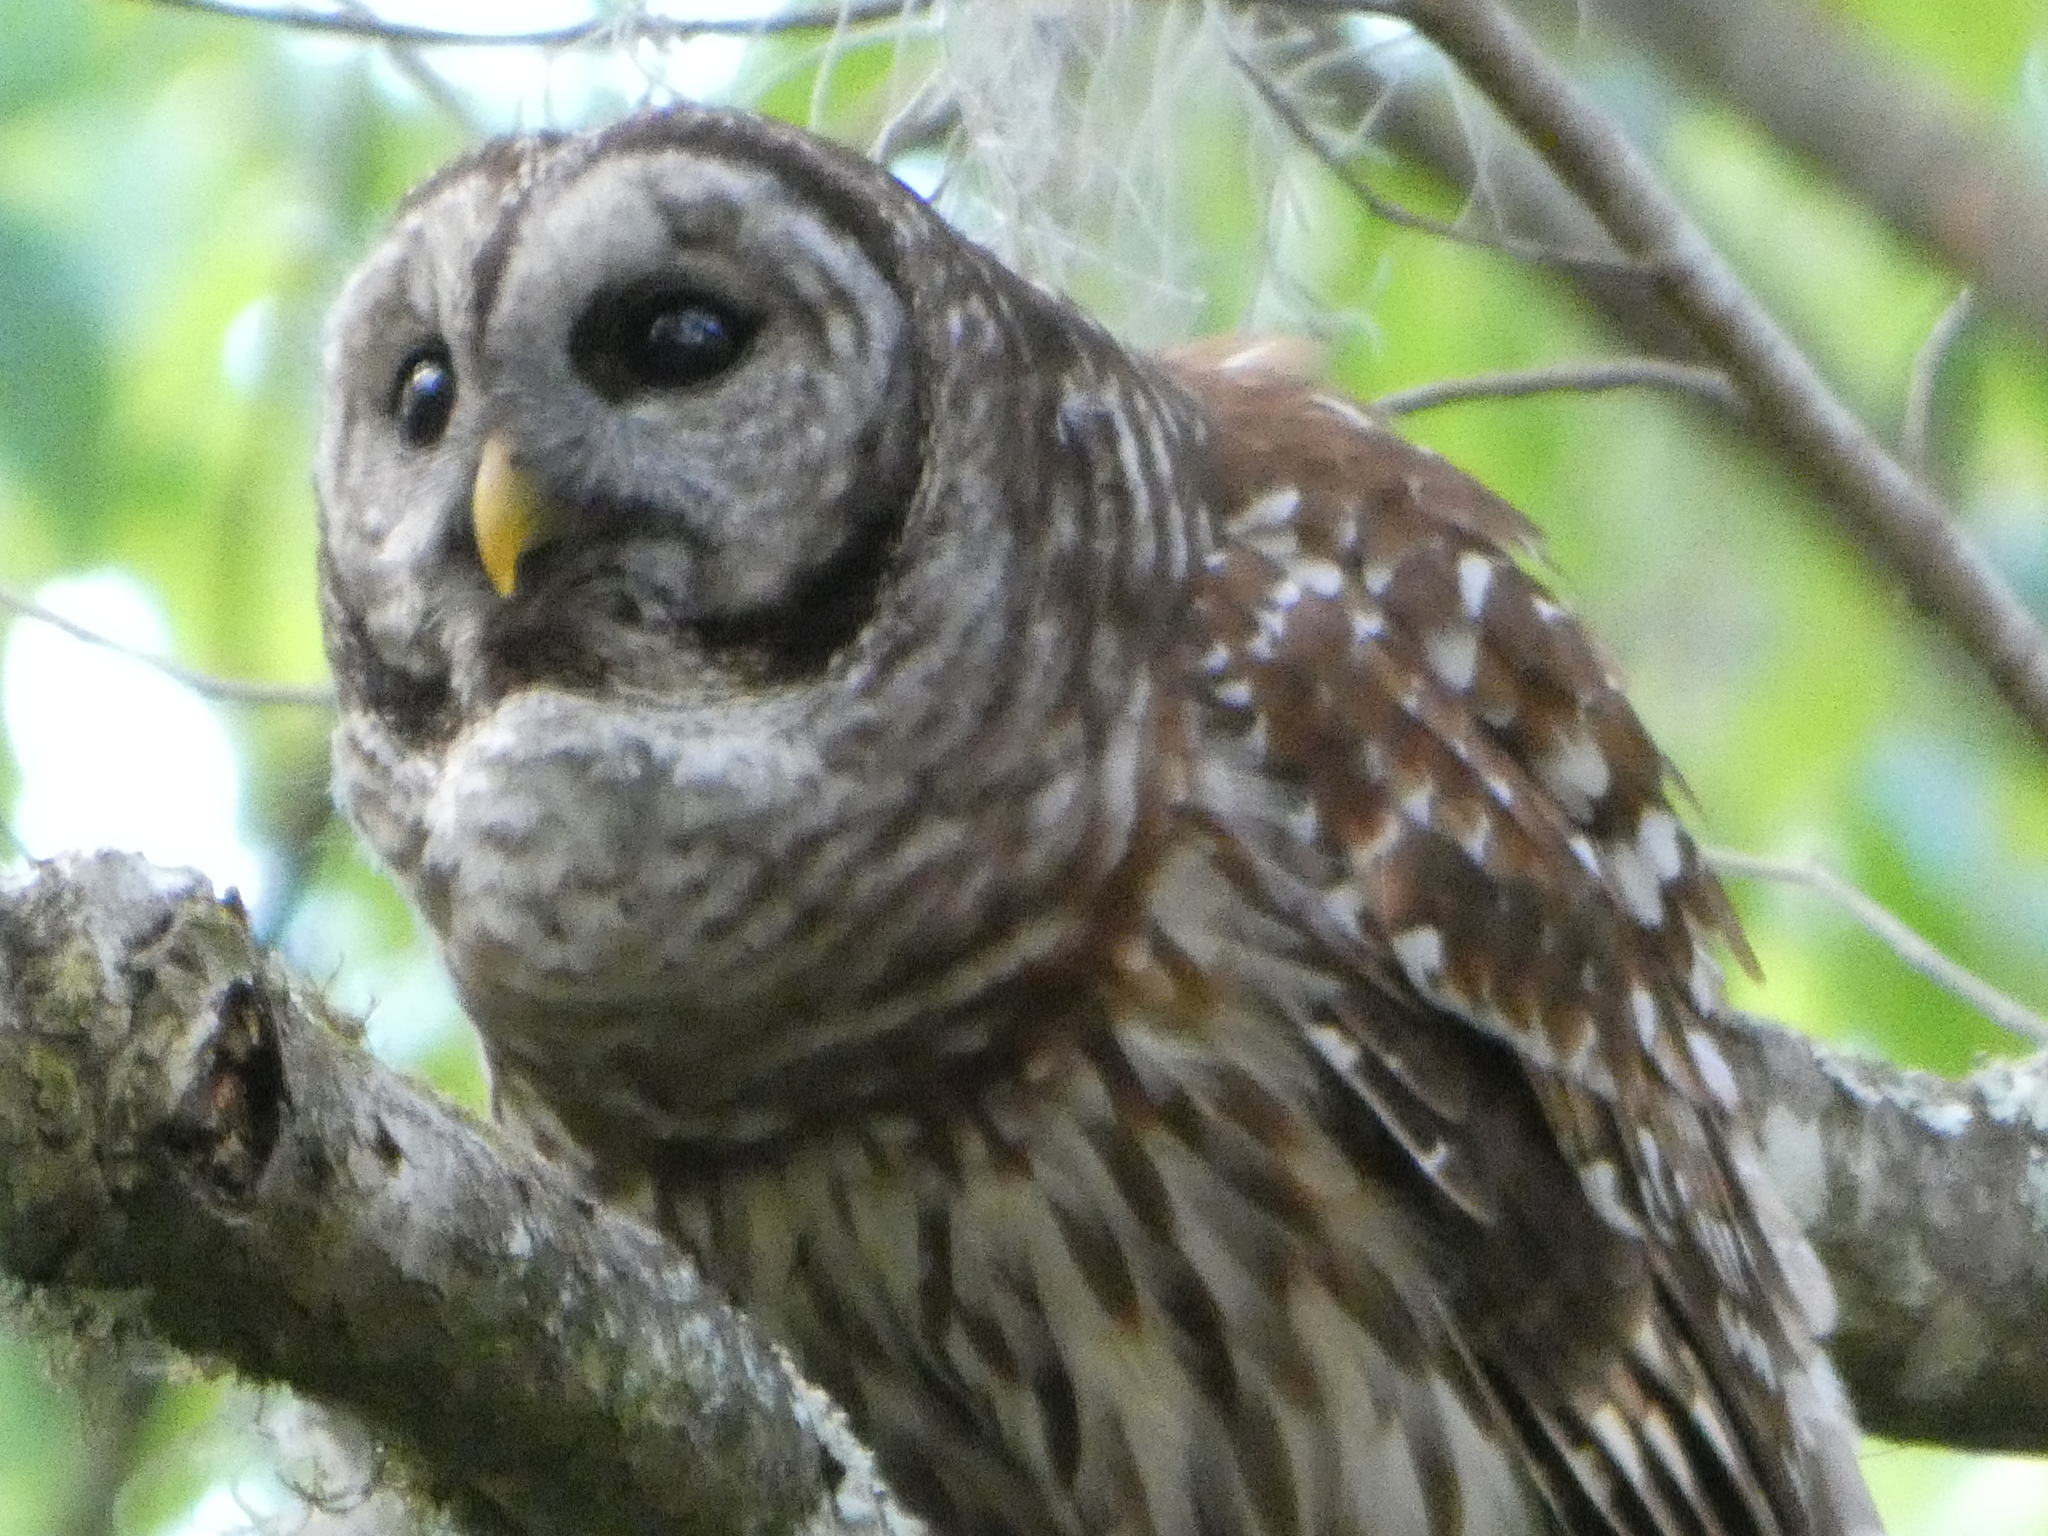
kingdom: Animalia
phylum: Chordata
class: Aves
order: Strigiformes
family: Strigidae
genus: Strix
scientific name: Strix varia
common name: Barred owl
